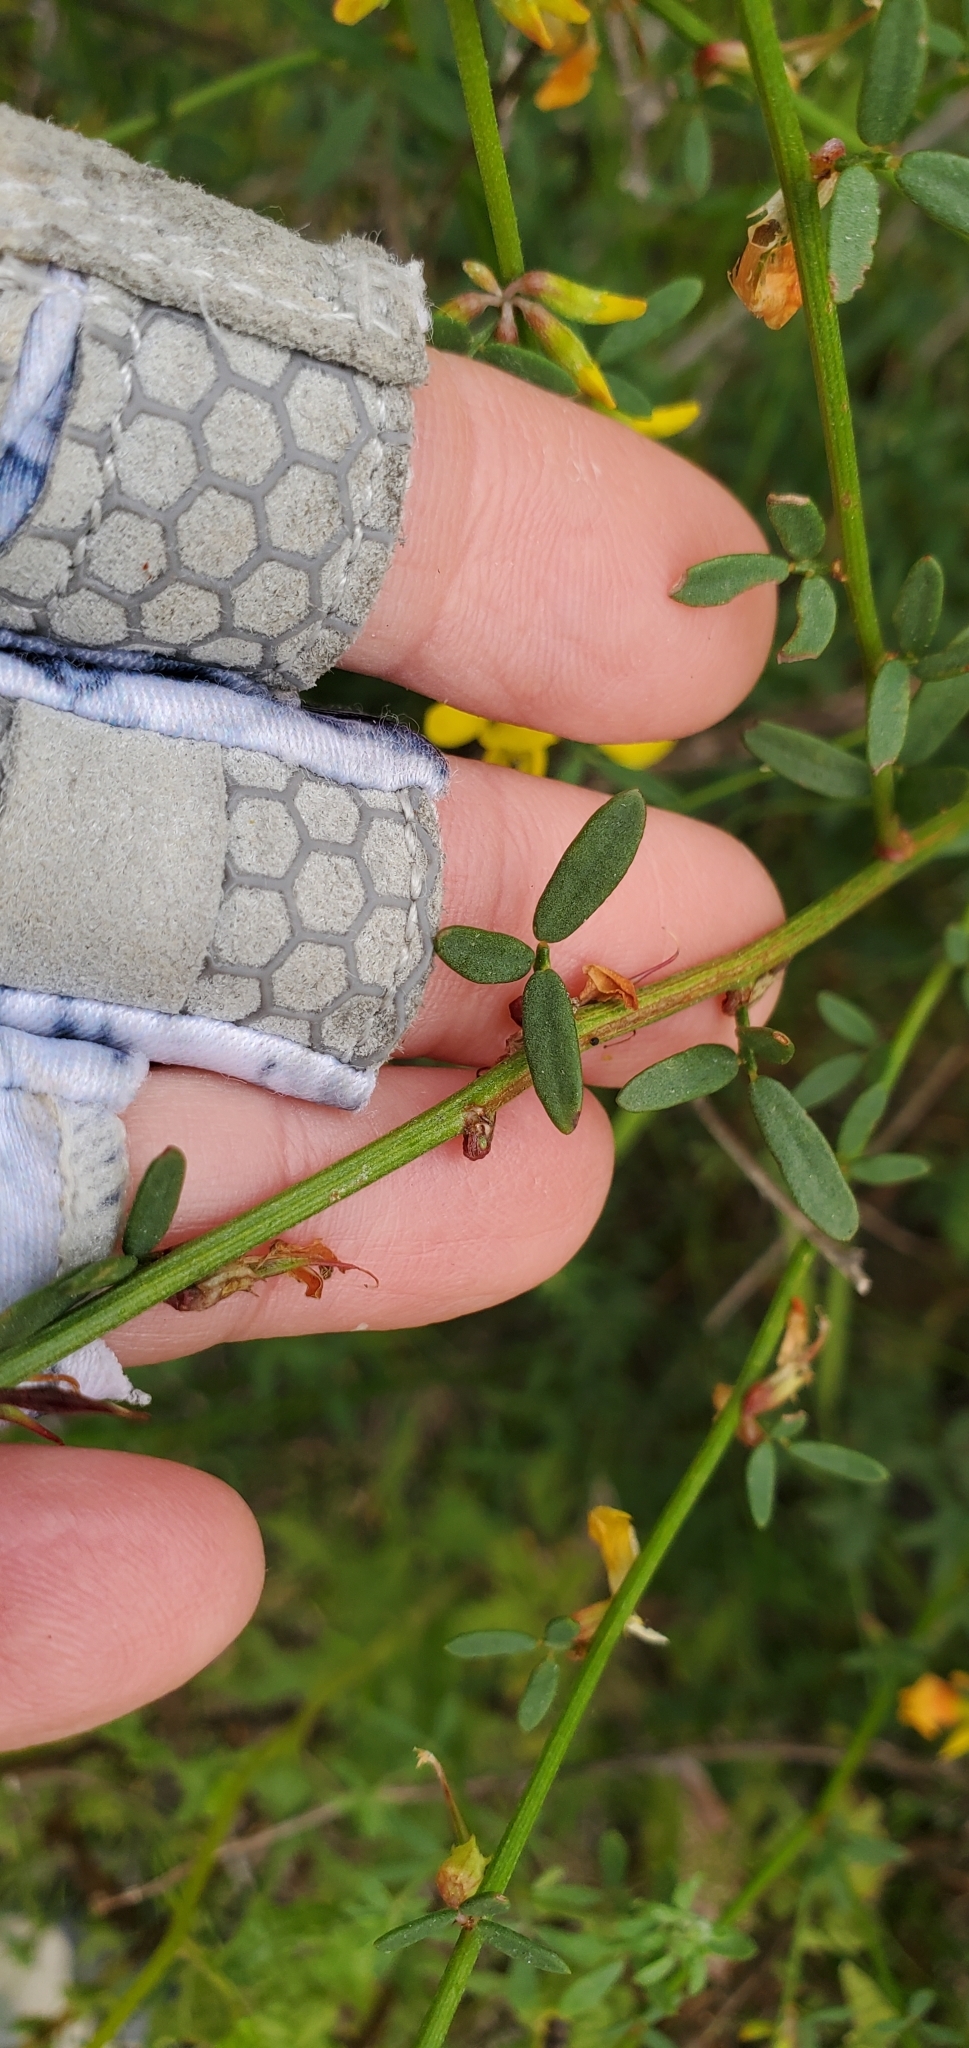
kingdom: Plantae
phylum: Tracheophyta
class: Magnoliopsida
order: Fabales
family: Fabaceae
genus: Acmispon
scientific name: Acmispon glaber
